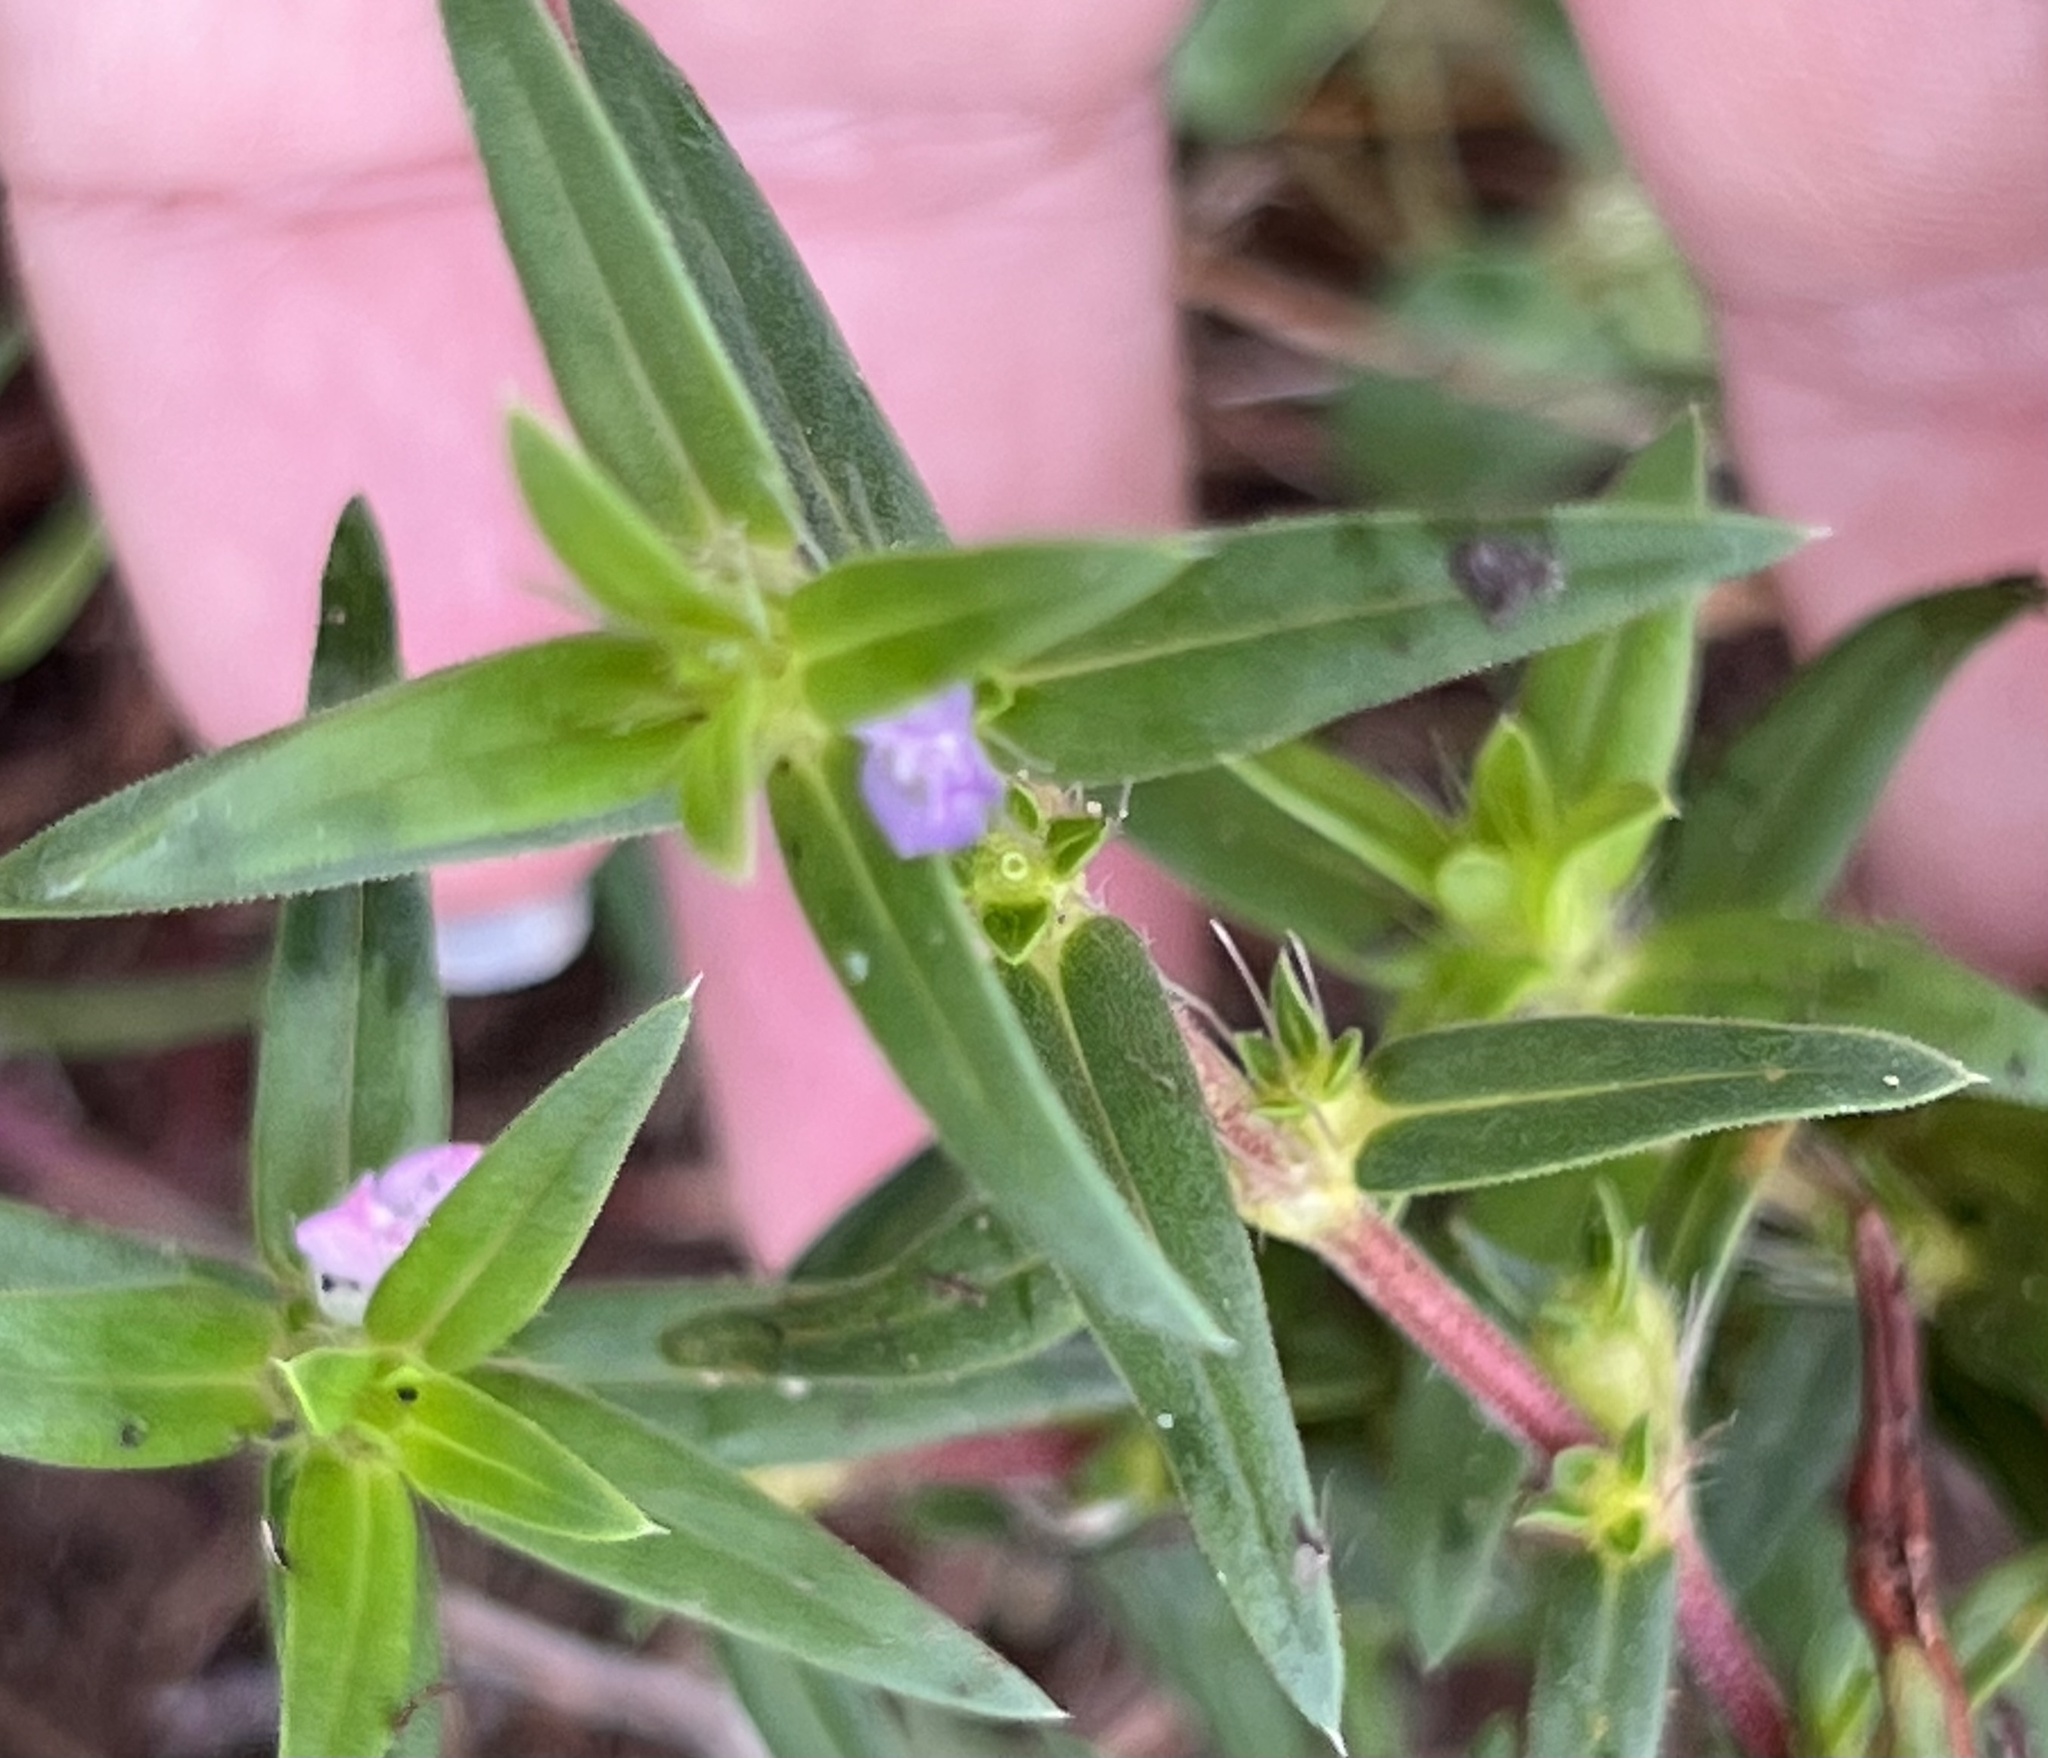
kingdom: Plantae
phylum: Tracheophyta
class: Magnoliopsida
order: Gentianales
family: Rubiaceae
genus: Hexasepalum
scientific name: Hexasepalum teres
